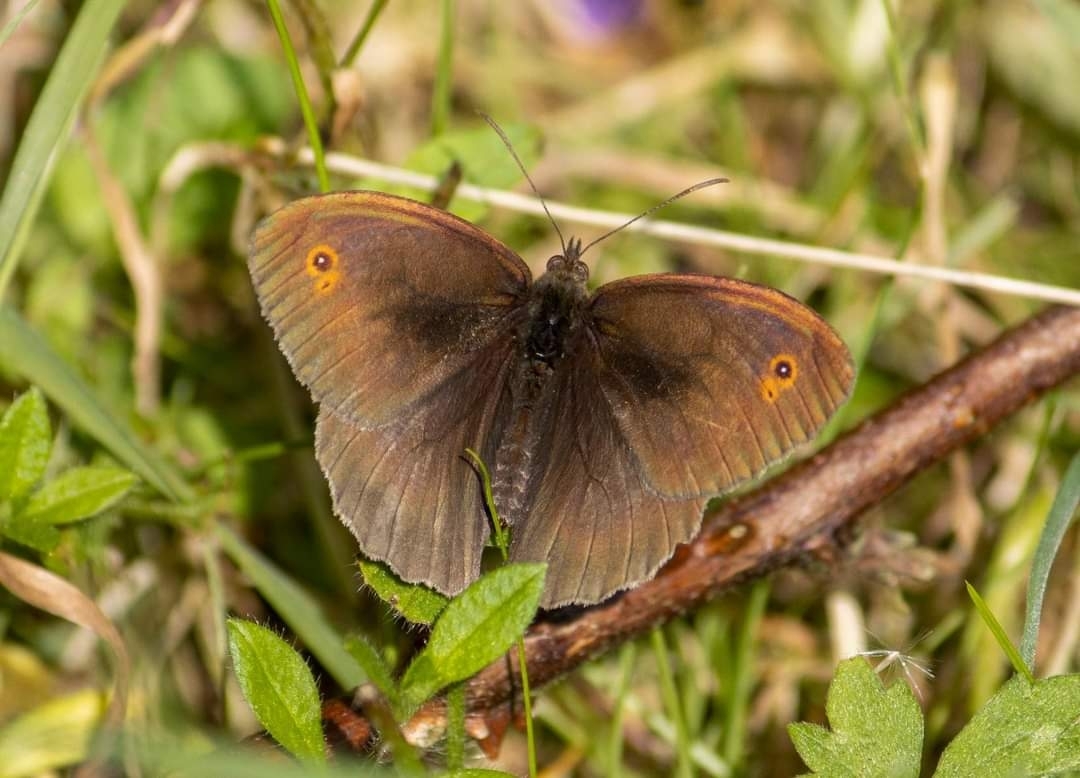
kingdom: Animalia
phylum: Arthropoda
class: Insecta
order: Lepidoptera
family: Nymphalidae
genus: Maniola
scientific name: Maniola jurtina
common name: Meadow brown
